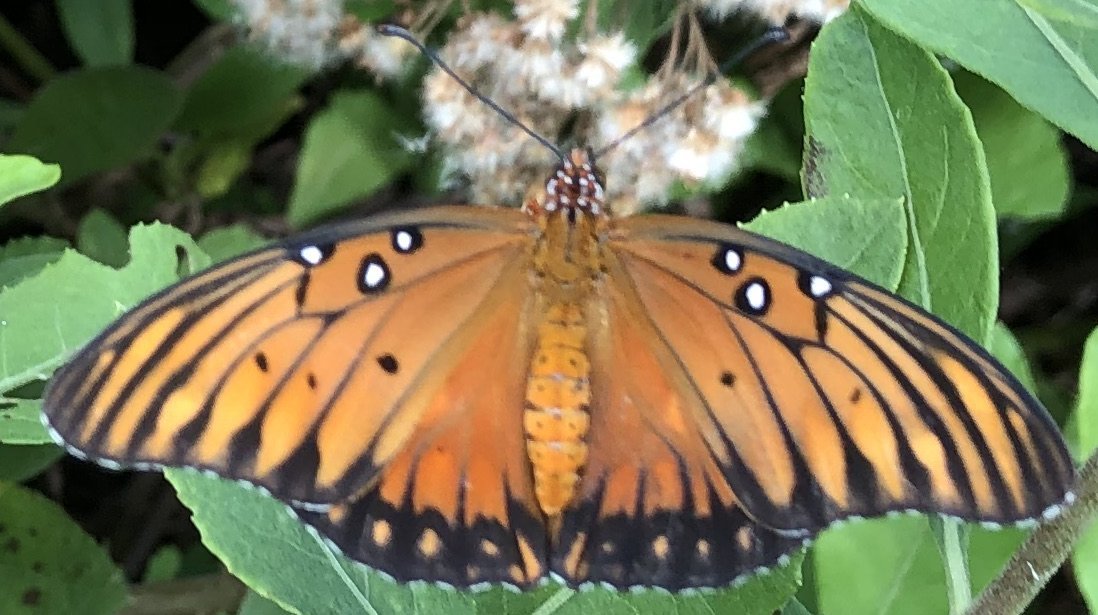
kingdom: Animalia
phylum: Arthropoda
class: Insecta
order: Lepidoptera
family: Nymphalidae
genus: Dione
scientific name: Dione vanillae
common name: Gulf fritillary
